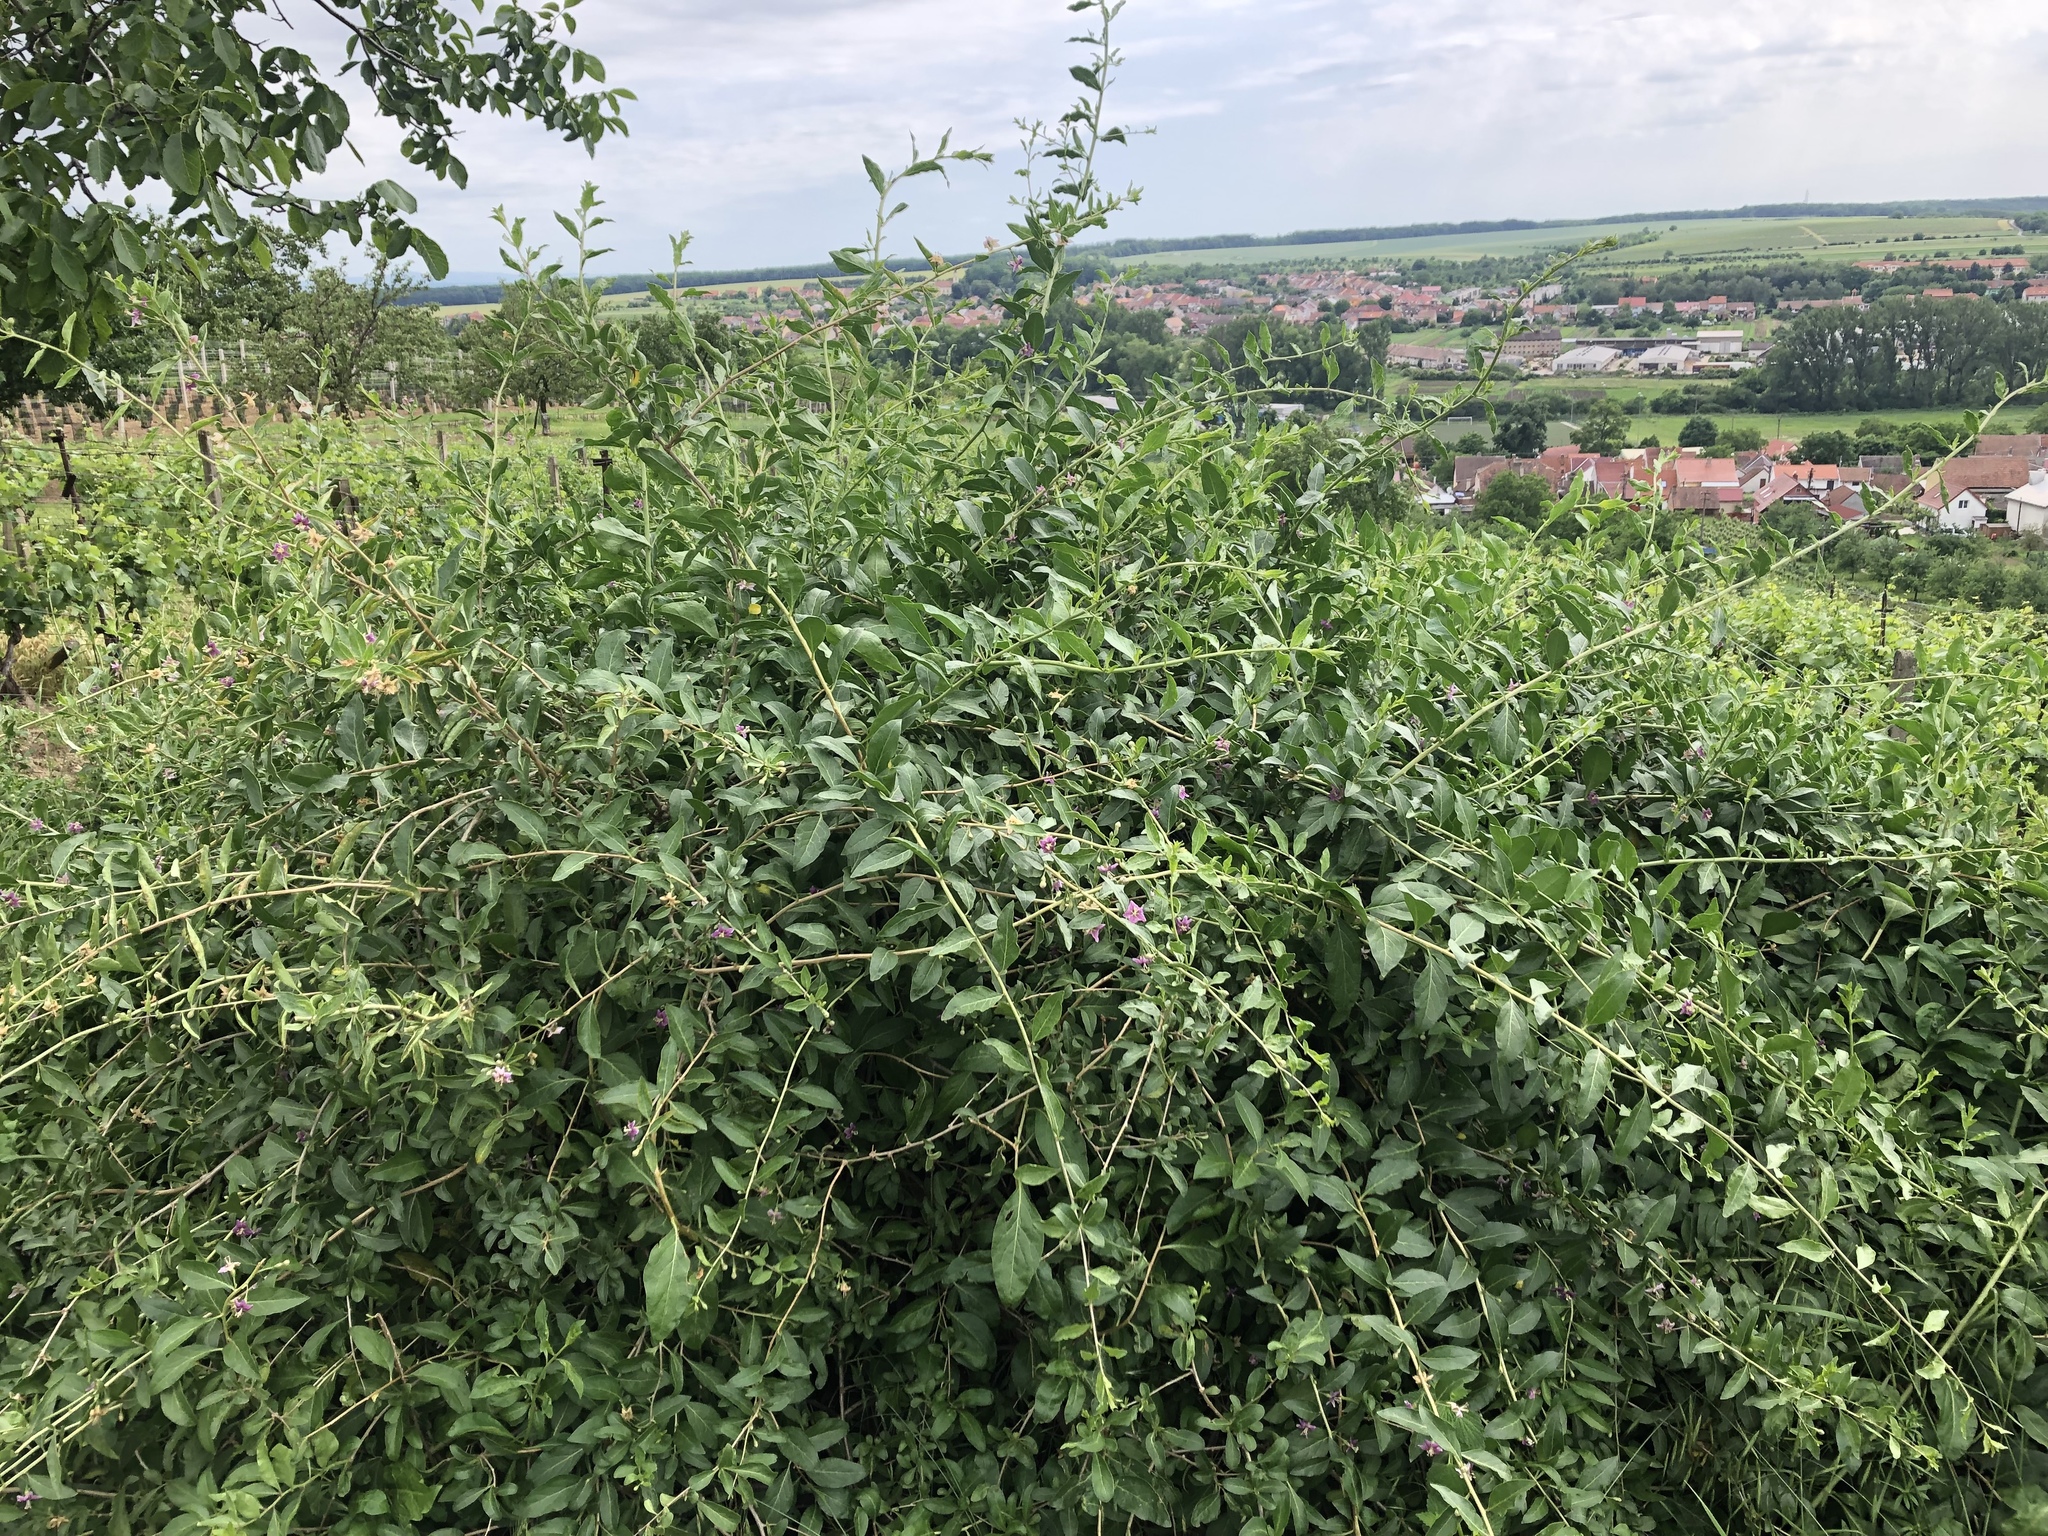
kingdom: Plantae
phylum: Tracheophyta
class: Magnoliopsida
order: Solanales
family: Solanaceae
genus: Lycium
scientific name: Lycium barbarum
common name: Duke of argyll's teaplant
